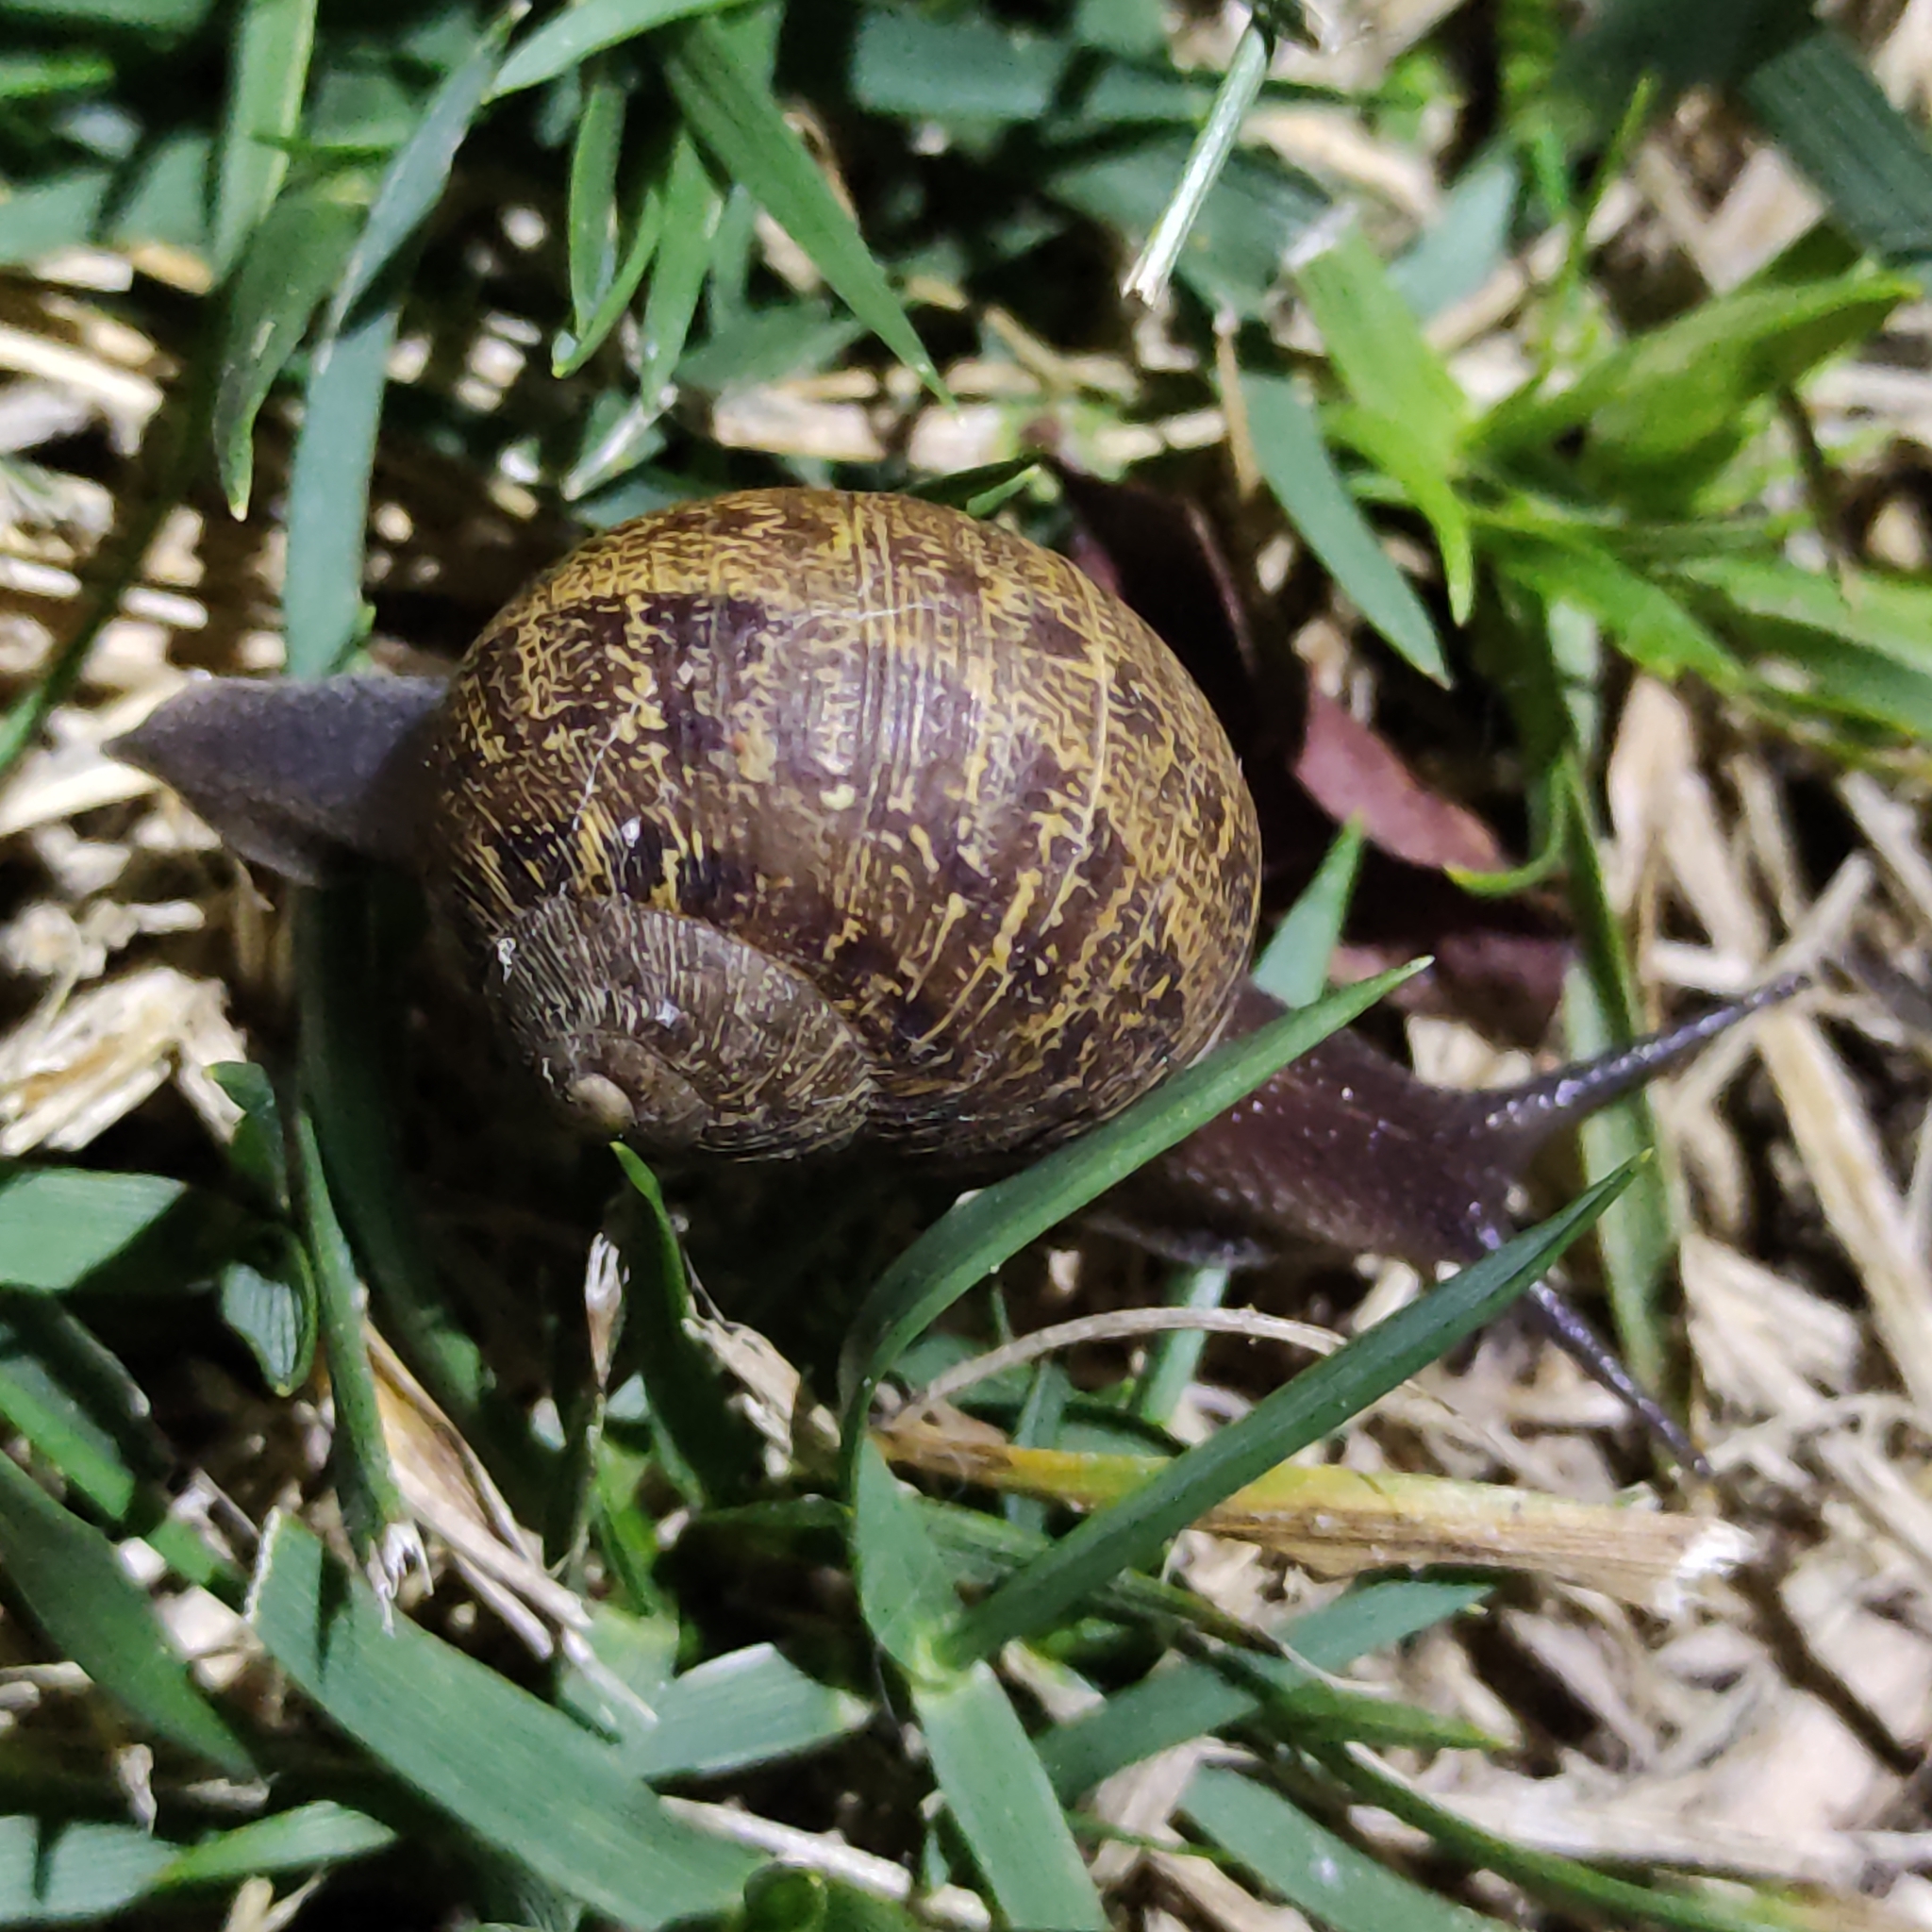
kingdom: Animalia
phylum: Mollusca
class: Gastropoda
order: Stylommatophora
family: Helicidae
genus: Cornu
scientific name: Cornu aspersum
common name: Brown garden snail
